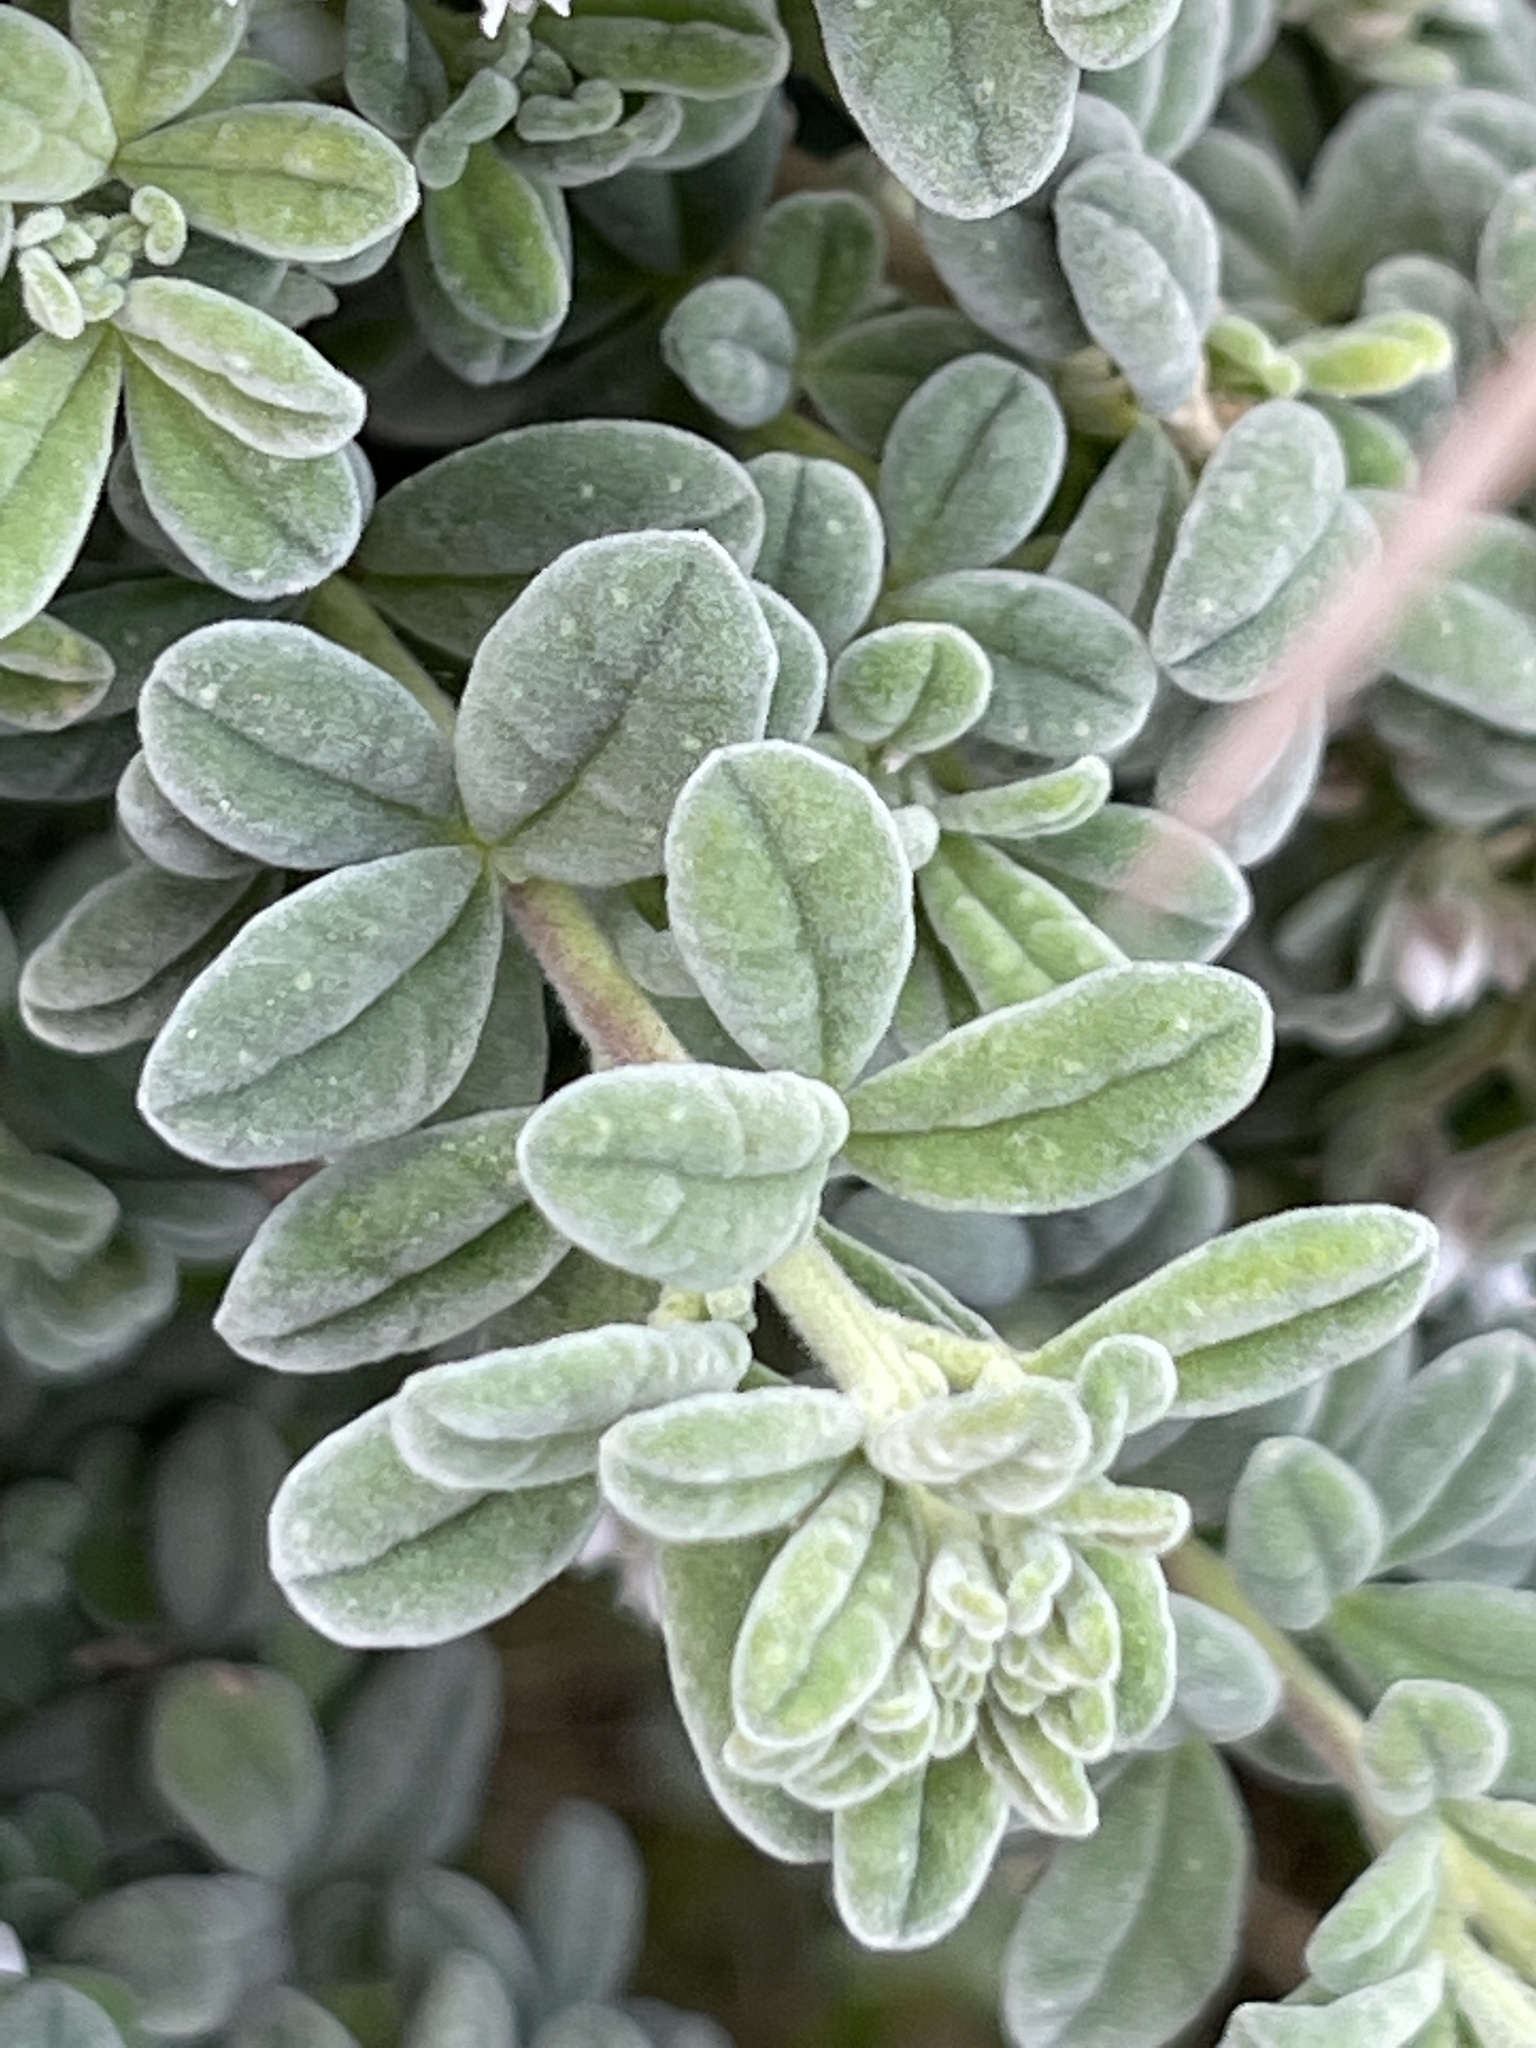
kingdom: Plantae
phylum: Tracheophyta
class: Magnoliopsida
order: Sapindales
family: Rutaceae
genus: Zieria
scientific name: Zieria littoralis
